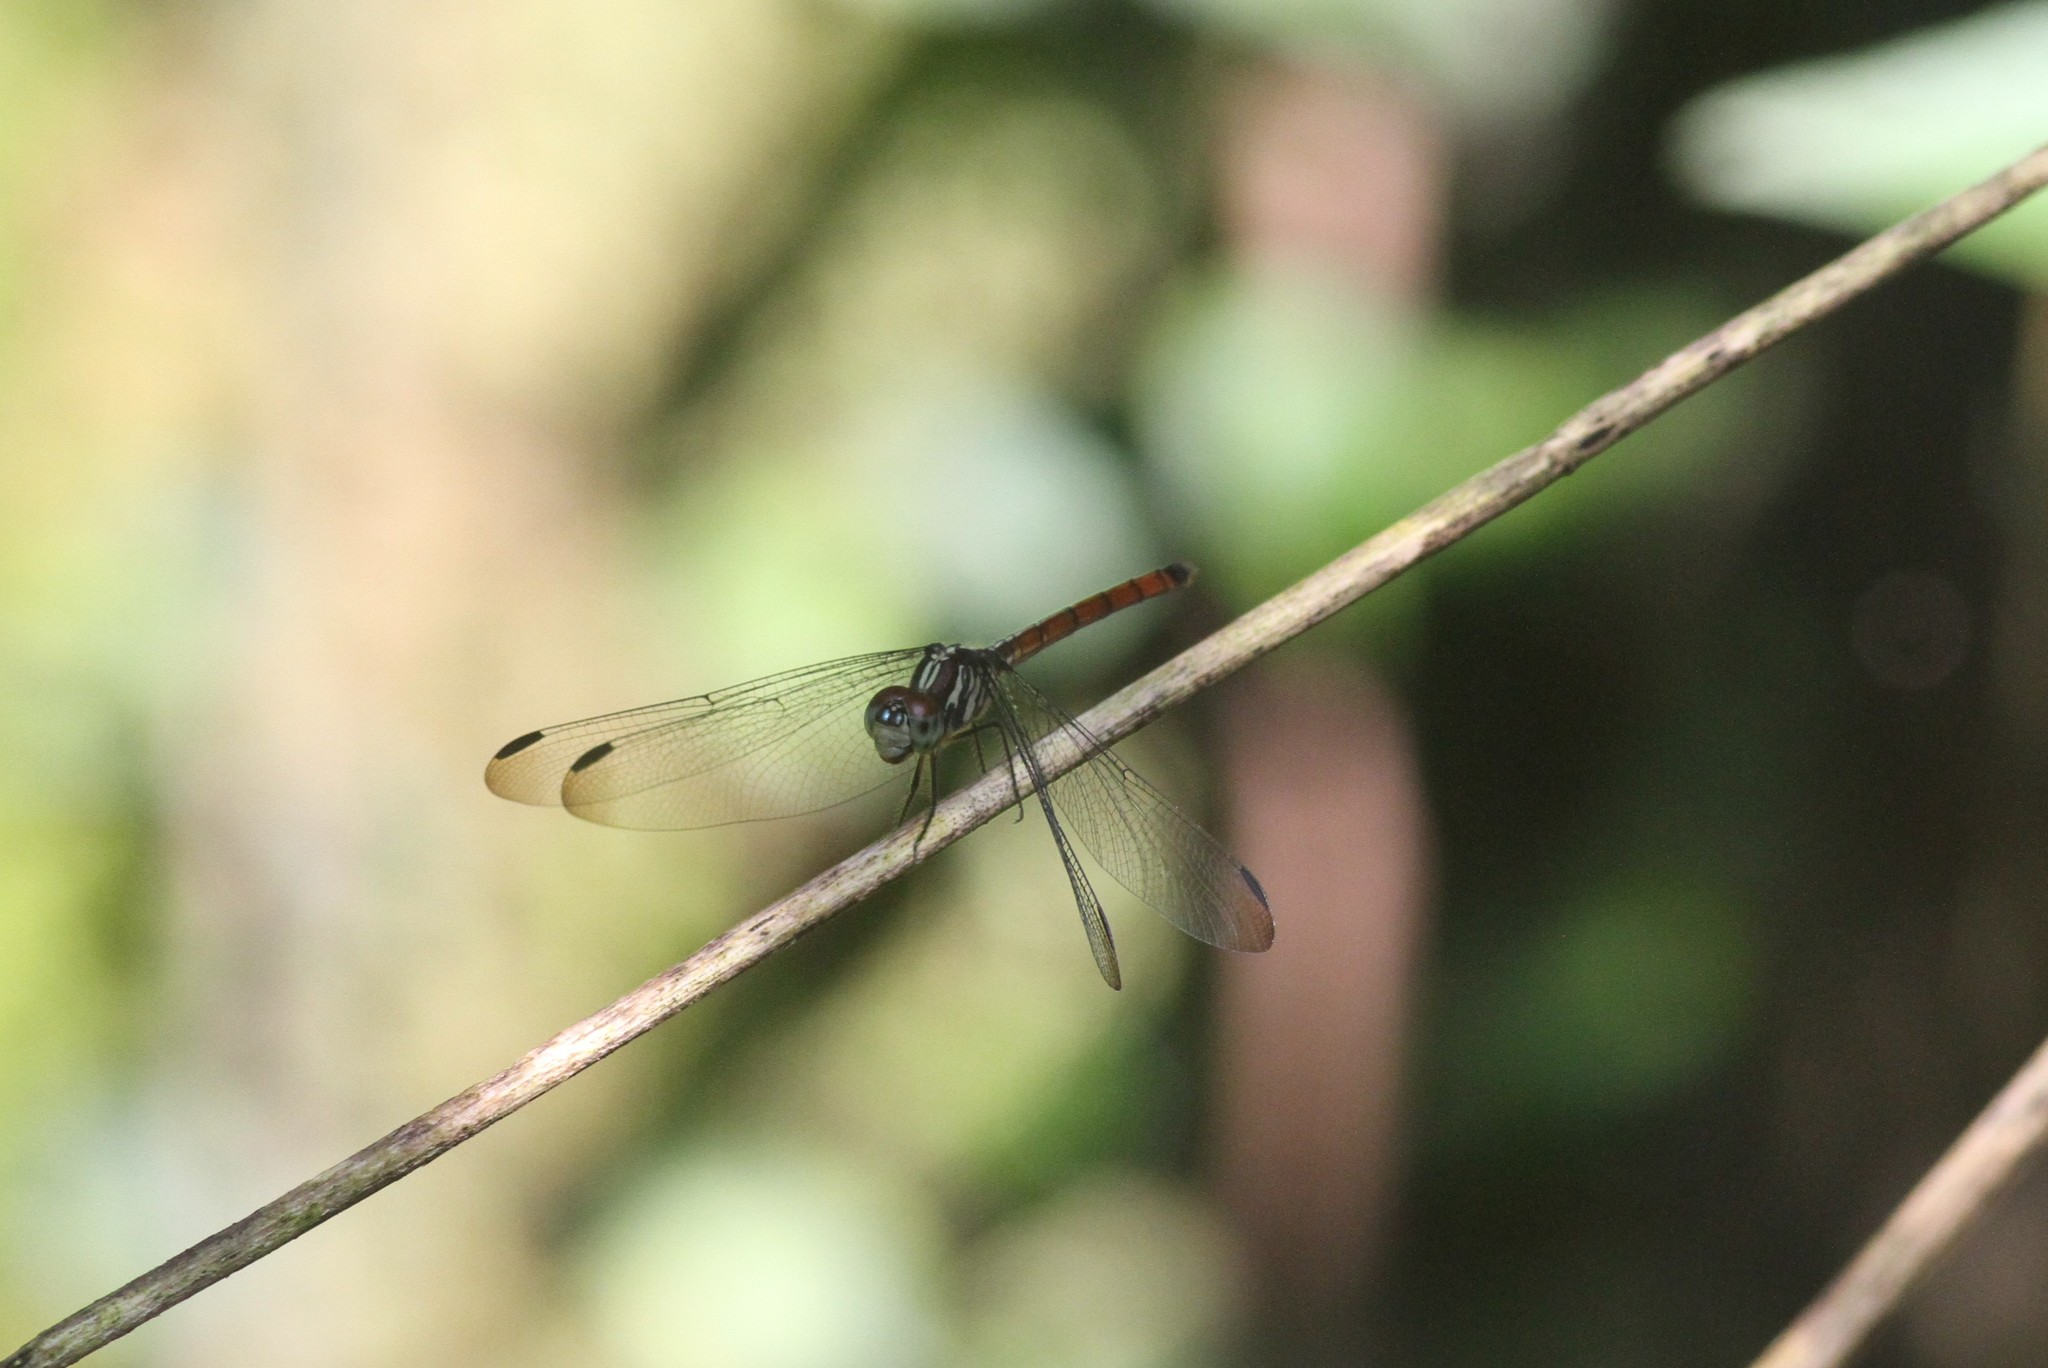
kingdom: Animalia
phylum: Arthropoda
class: Insecta
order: Odonata
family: Libellulidae
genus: Lathrecista
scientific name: Lathrecista asiatica
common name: Scarlet grenadier
